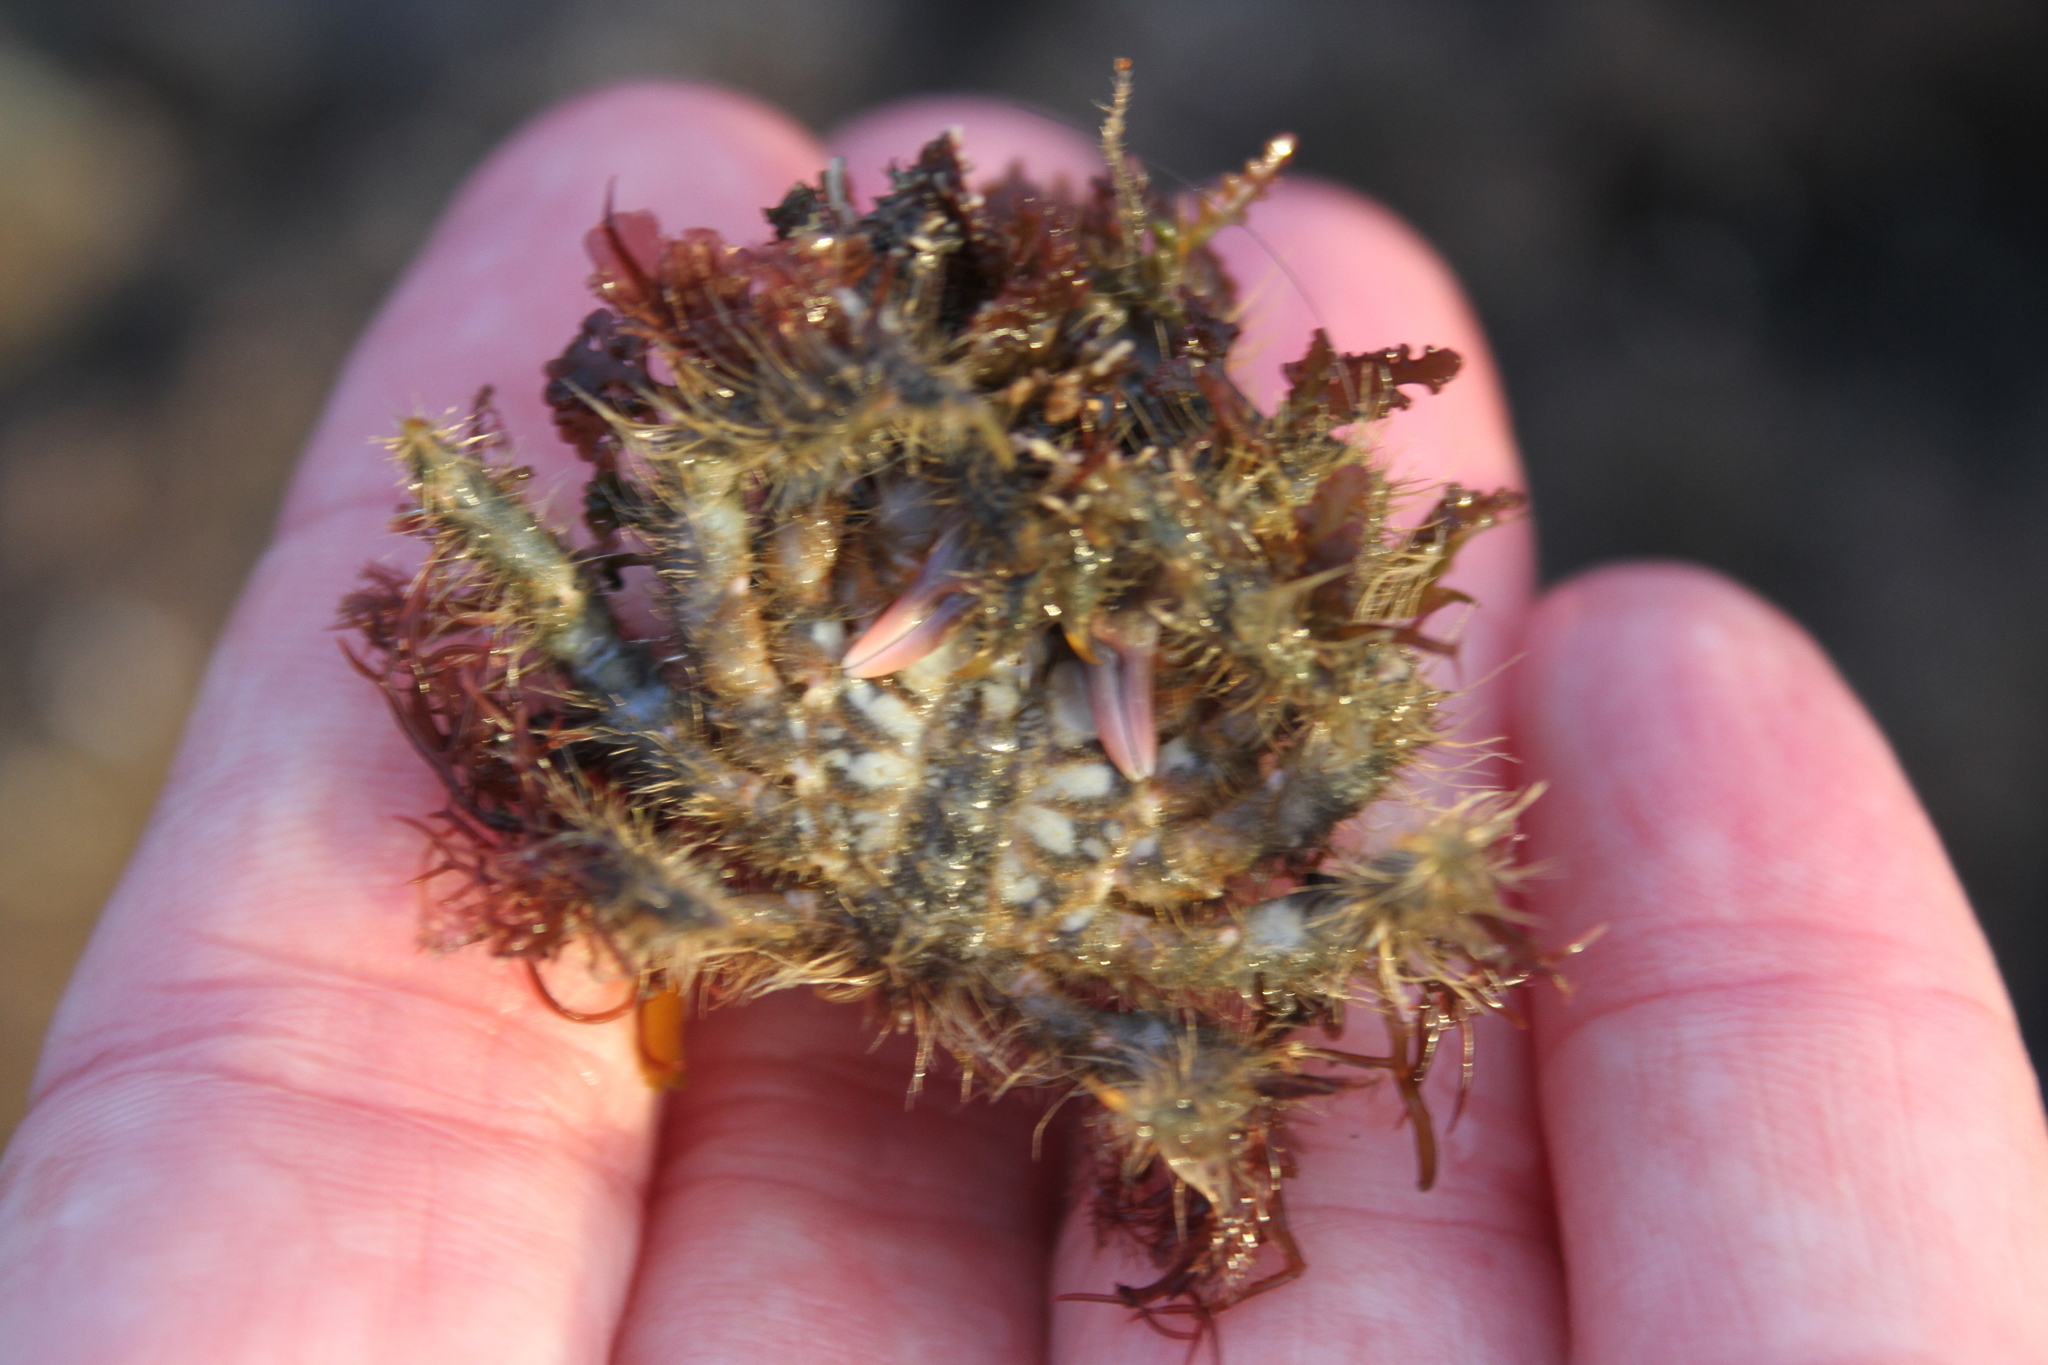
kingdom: Animalia
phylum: Arthropoda
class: Malacostraca
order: Decapoda
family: Majidae
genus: Notomithrax
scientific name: Notomithrax ursus
